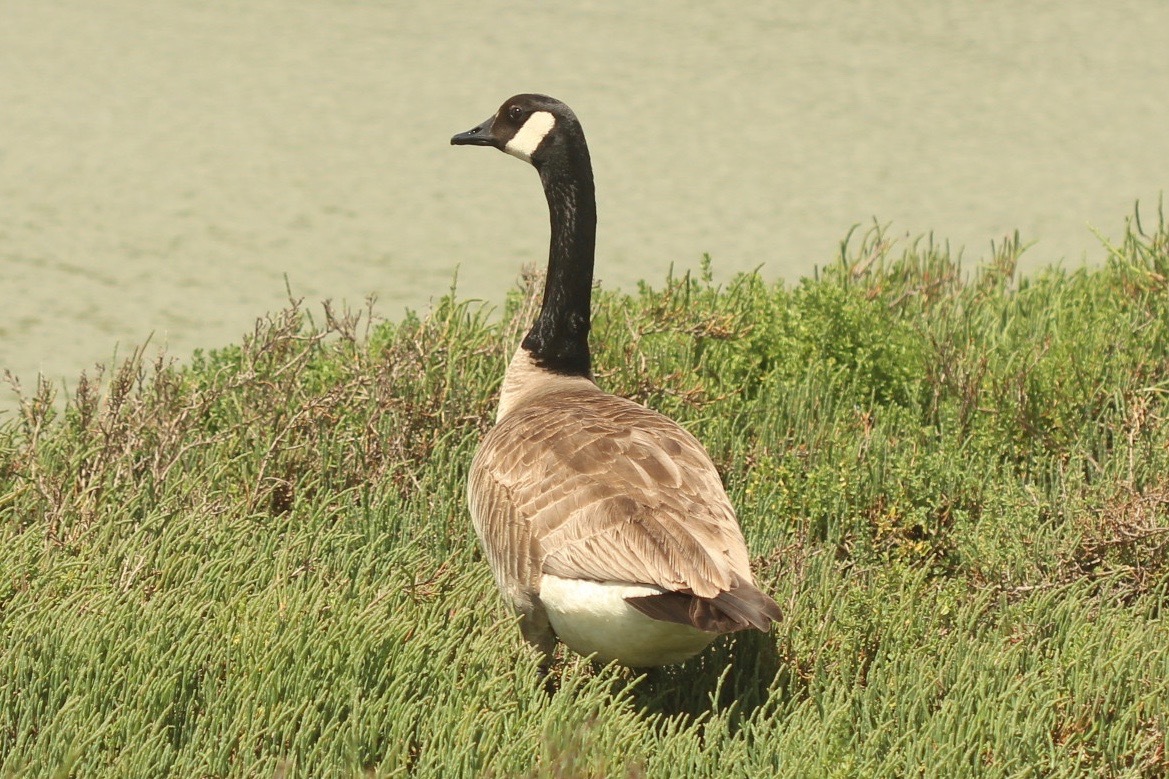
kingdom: Animalia
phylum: Chordata
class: Aves
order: Anseriformes
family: Anatidae
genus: Branta
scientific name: Branta canadensis
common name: Canada goose
